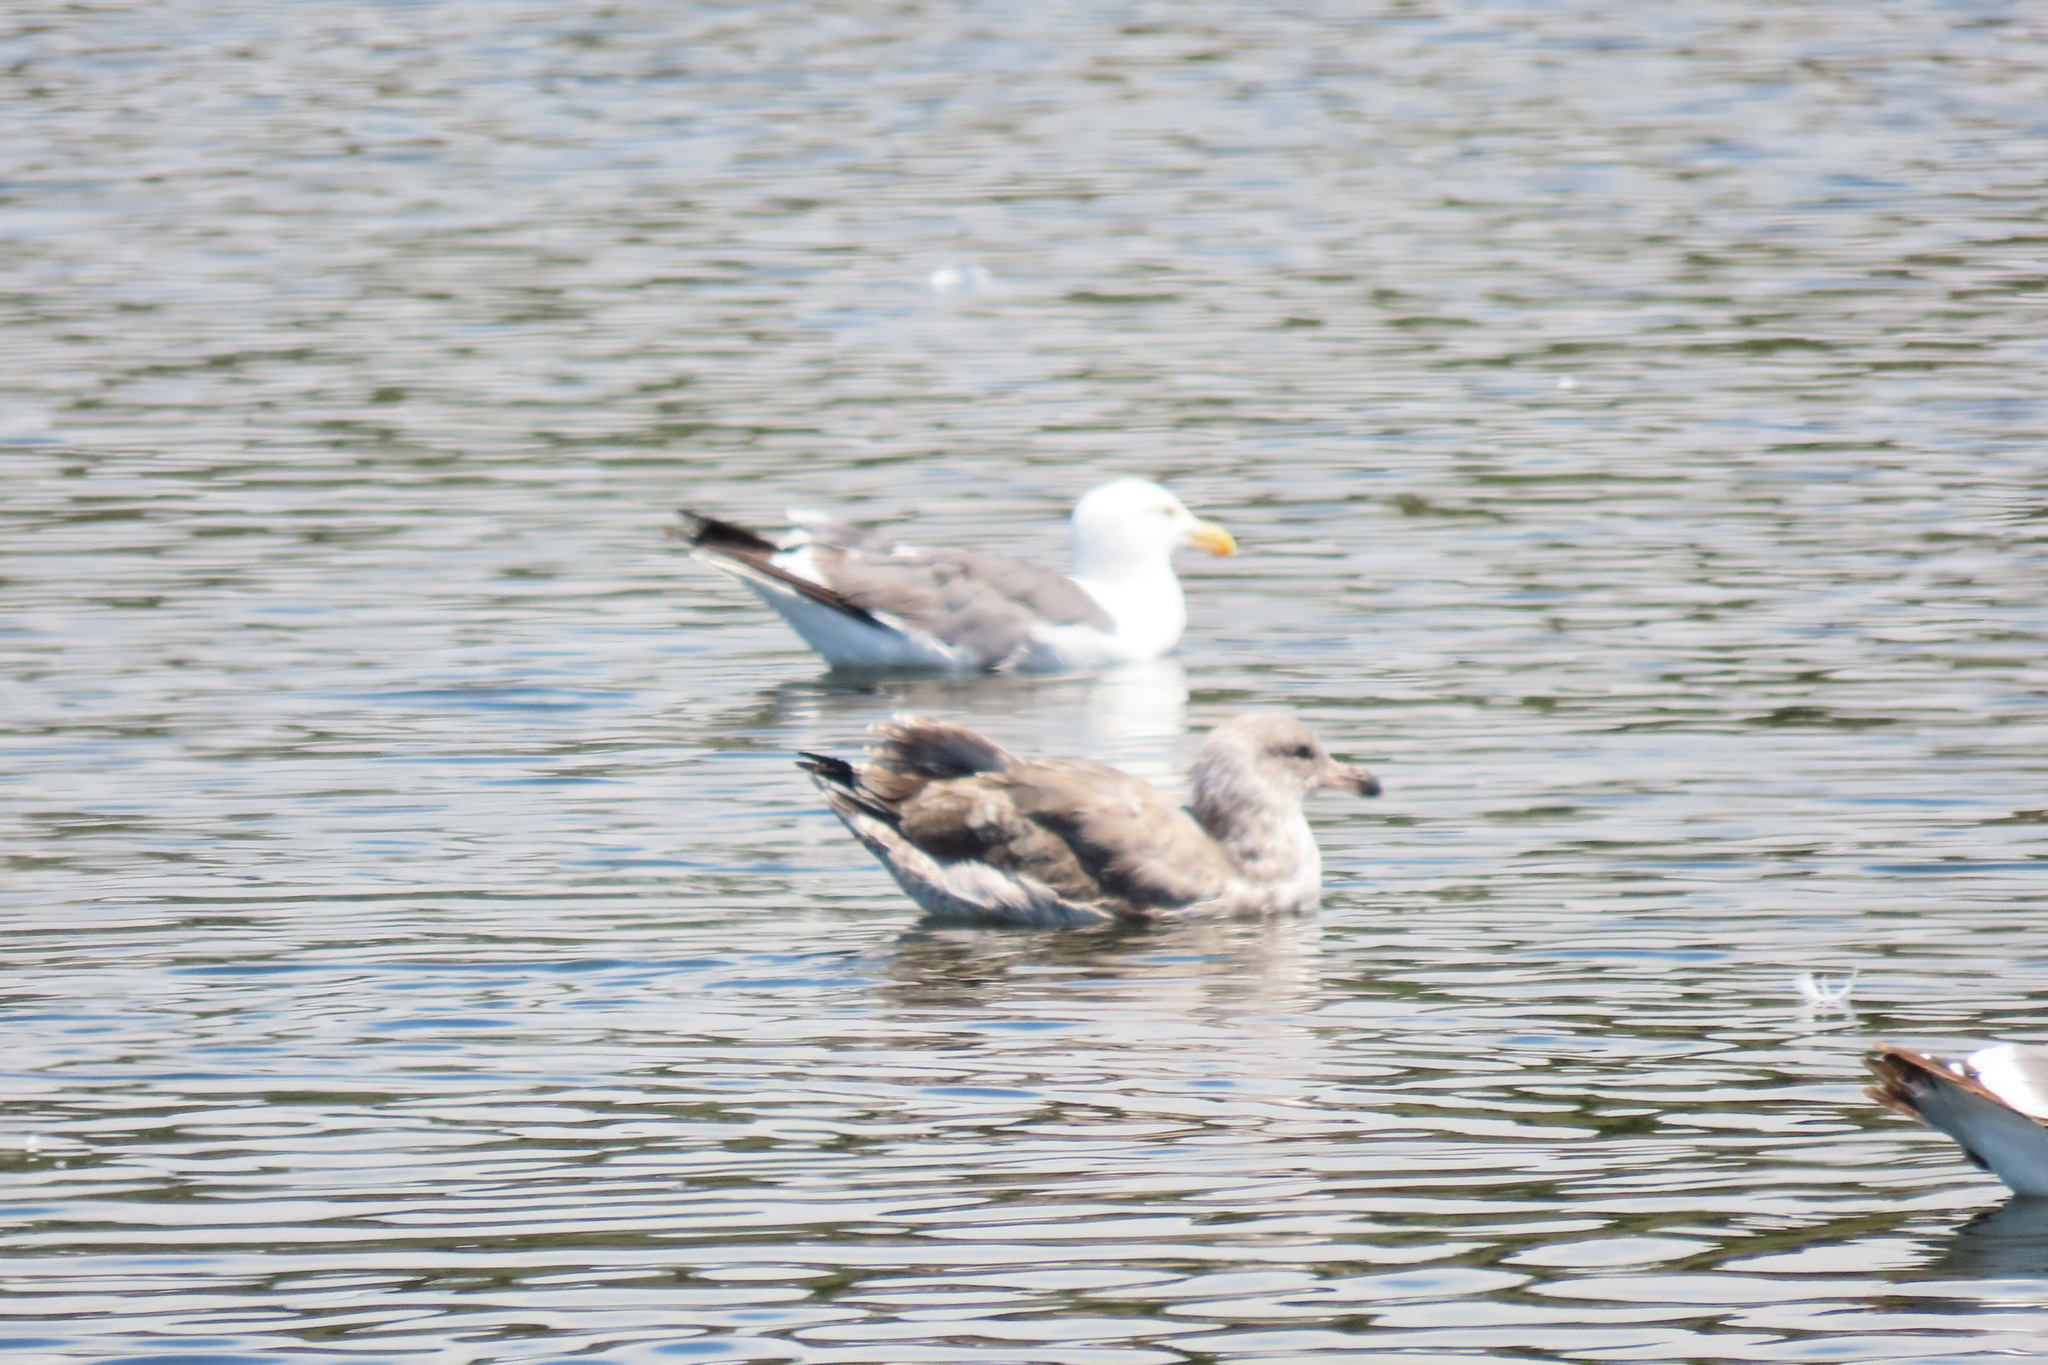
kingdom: Animalia
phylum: Chordata
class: Aves
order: Charadriiformes
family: Laridae
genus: Larus
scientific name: Larus occidentalis
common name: Western gull
